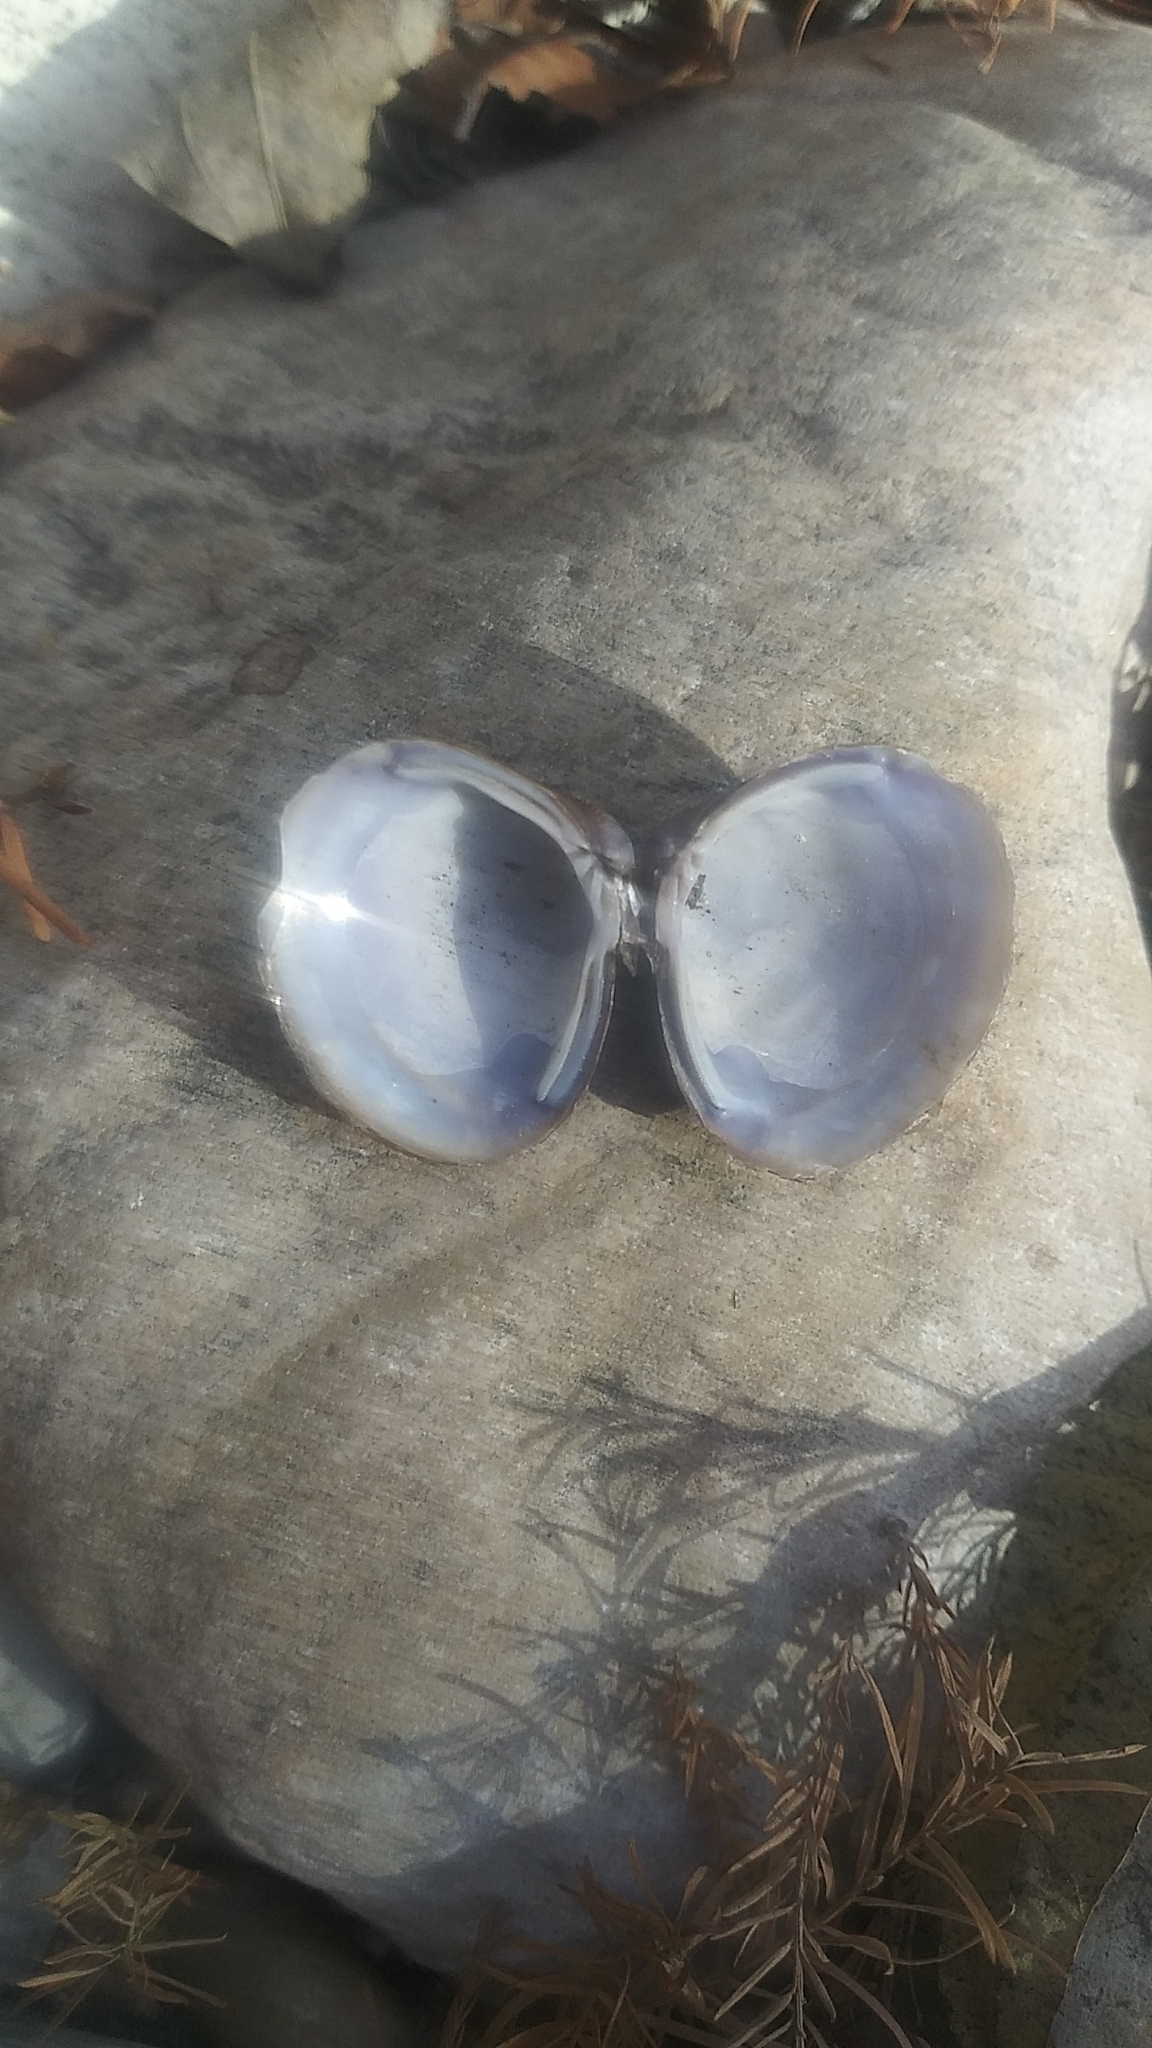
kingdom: Animalia
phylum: Mollusca
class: Bivalvia
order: Venerida
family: Cyrenidae
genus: Corbicula
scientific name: Corbicula fluminea
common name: Asian clam
